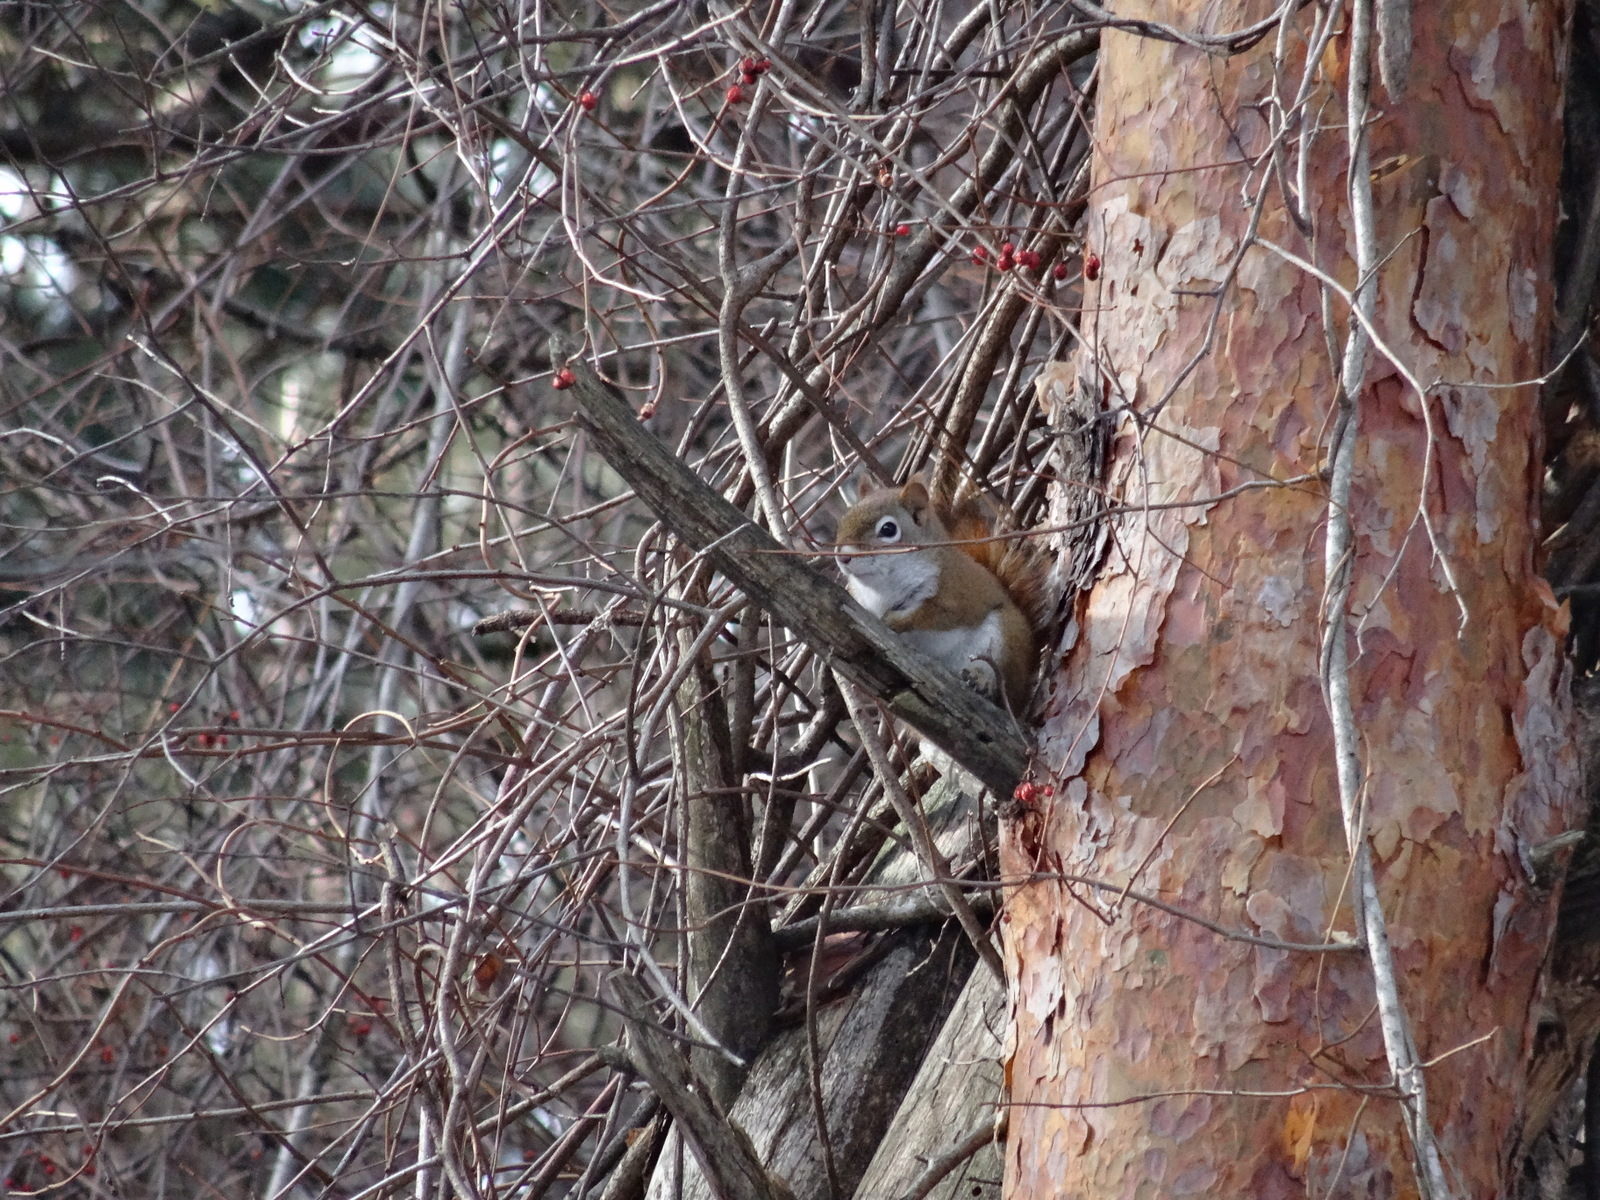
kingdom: Animalia
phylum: Chordata
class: Mammalia
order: Rodentia
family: Sciuridae
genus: Tamiasciurus
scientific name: Tamiasciurus hudsonicus
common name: Red squirrel
